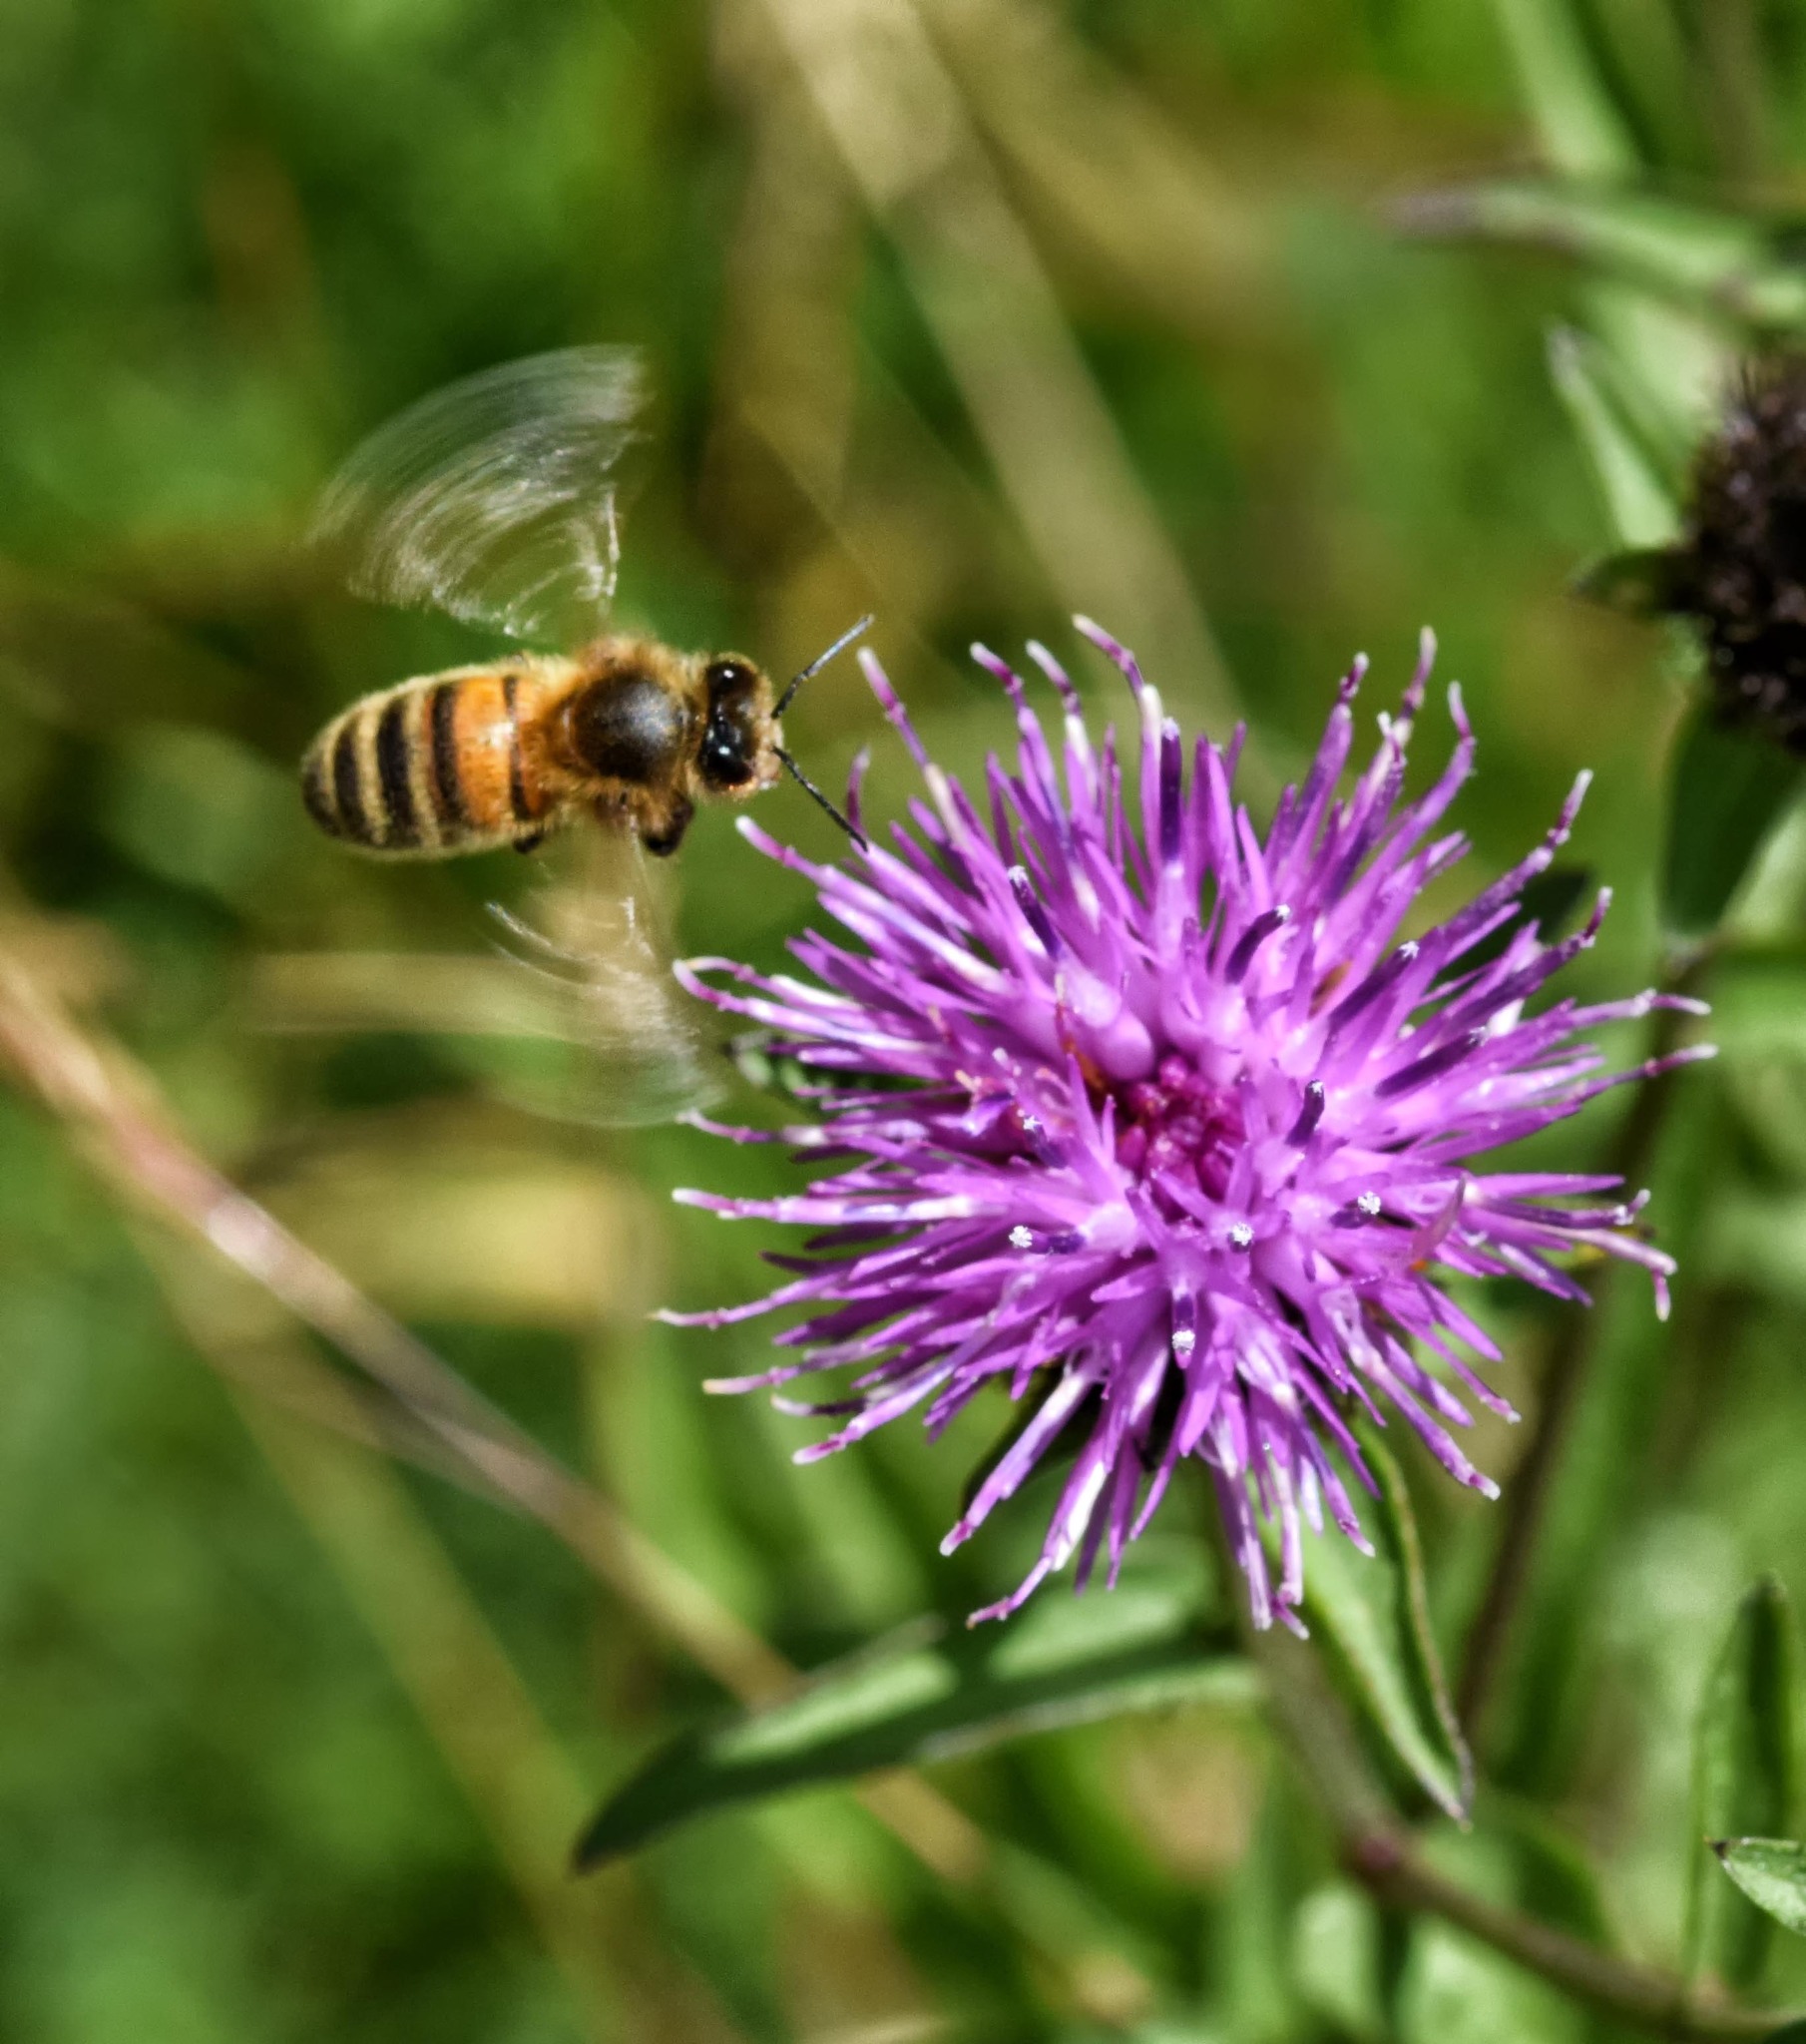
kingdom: Animalia
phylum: Arthropoda
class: Insecta
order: Hymenoptera
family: Apidae
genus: Apis
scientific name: Apis mellifera
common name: Honey bee
